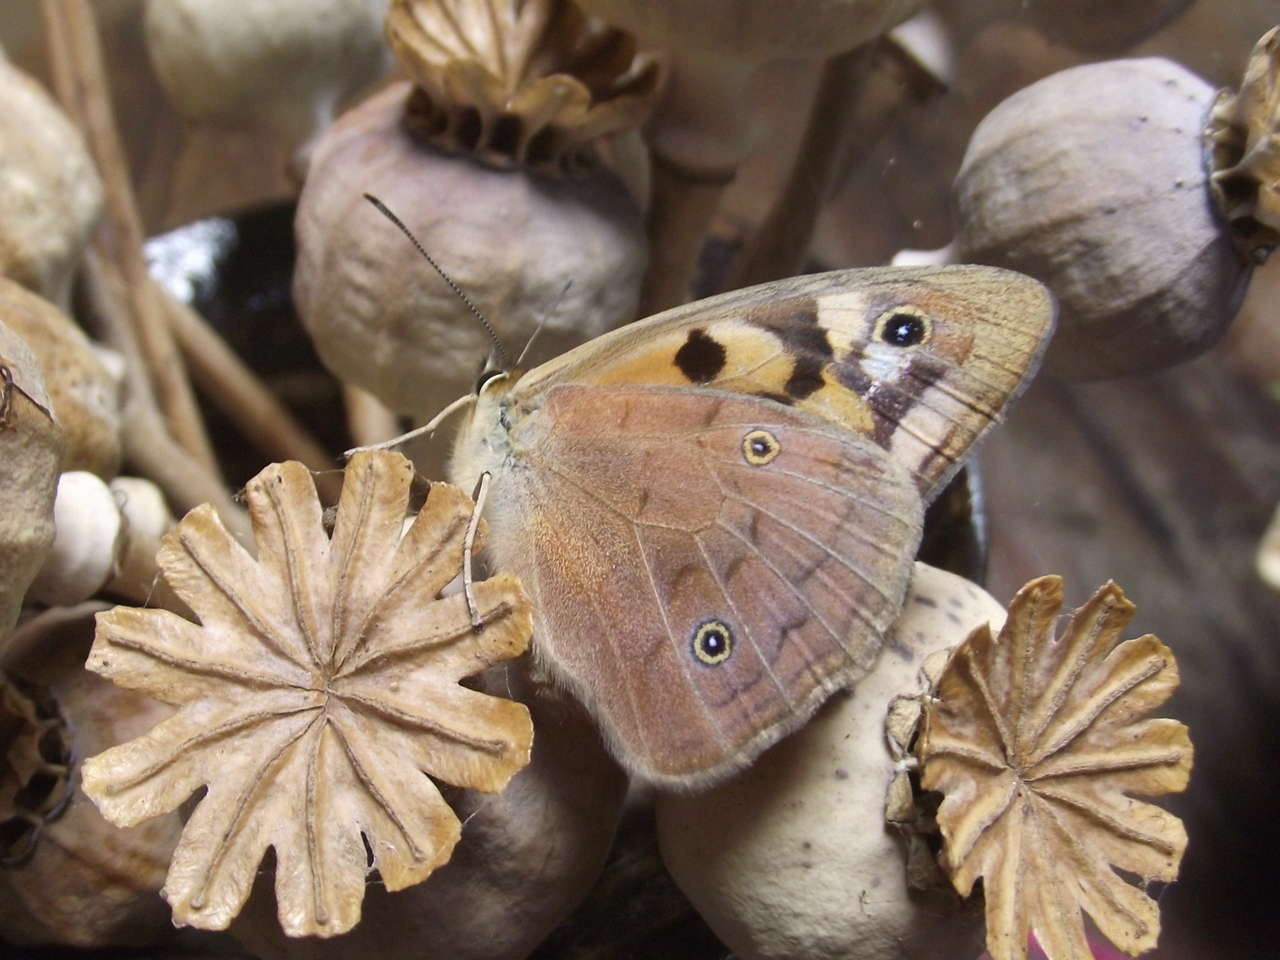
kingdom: Animalia
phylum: Arthropoda
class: Insecta
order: Lepidoptera
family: Nymphalidae
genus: Heteronympha
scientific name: Heteronympha penelope
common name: Shouldered brown
